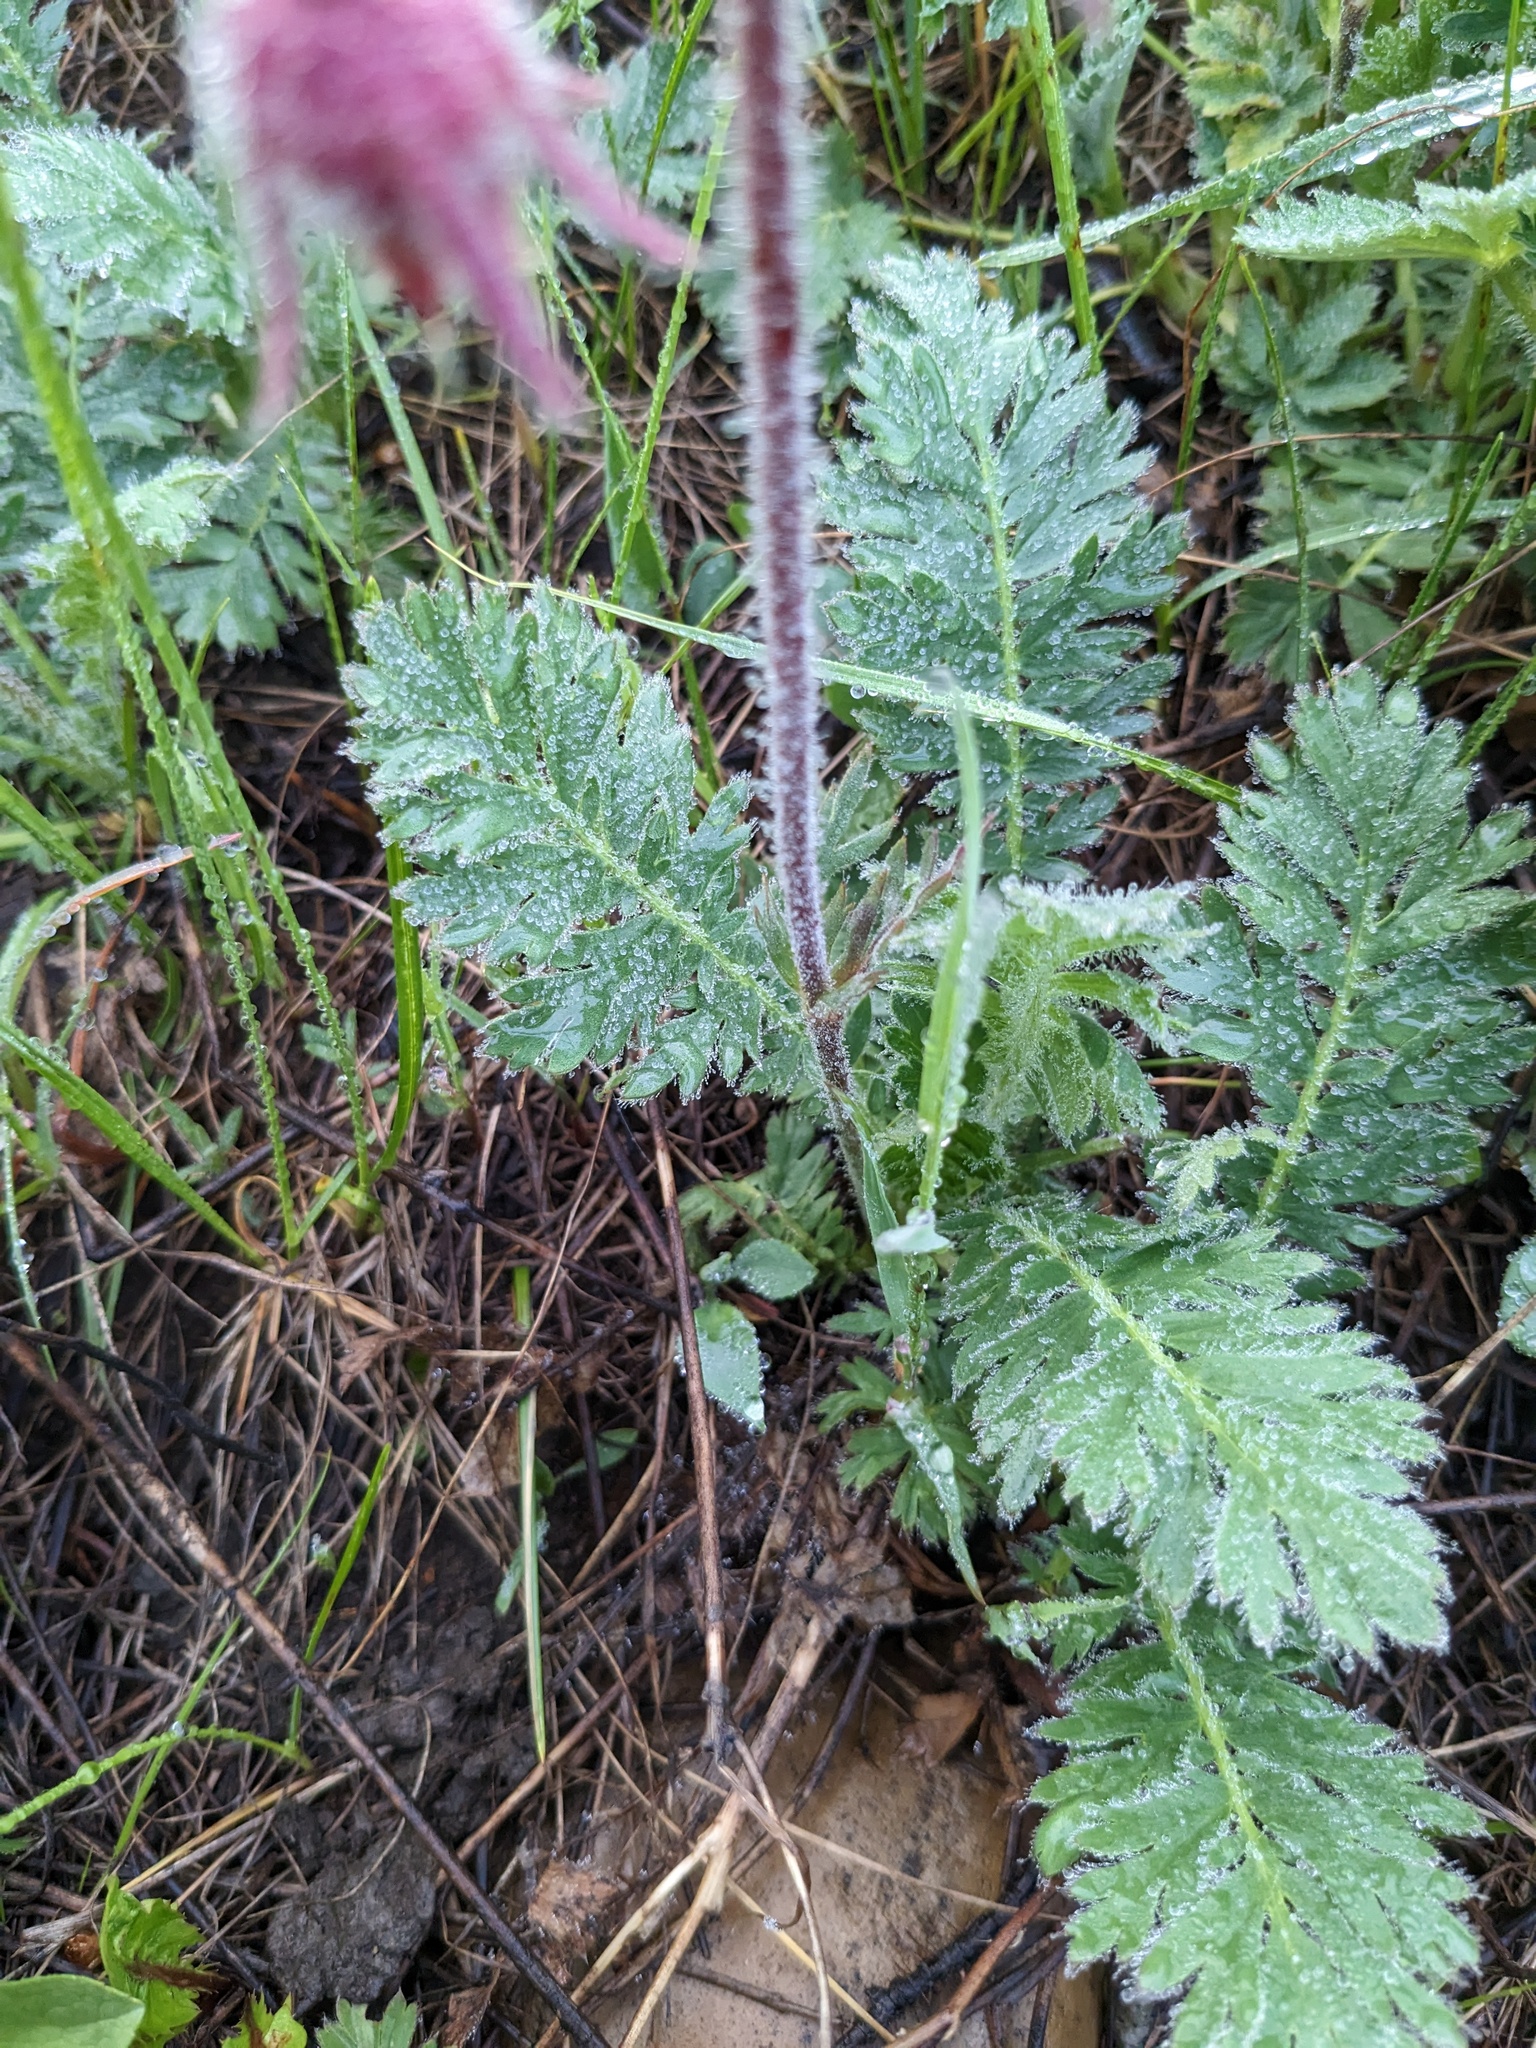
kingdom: Plantae
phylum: Tracheophyta
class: Magnoliopsida
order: Rosales
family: Rosaceae
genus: Geum
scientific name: Geum triflorum
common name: Old man's whiskers
